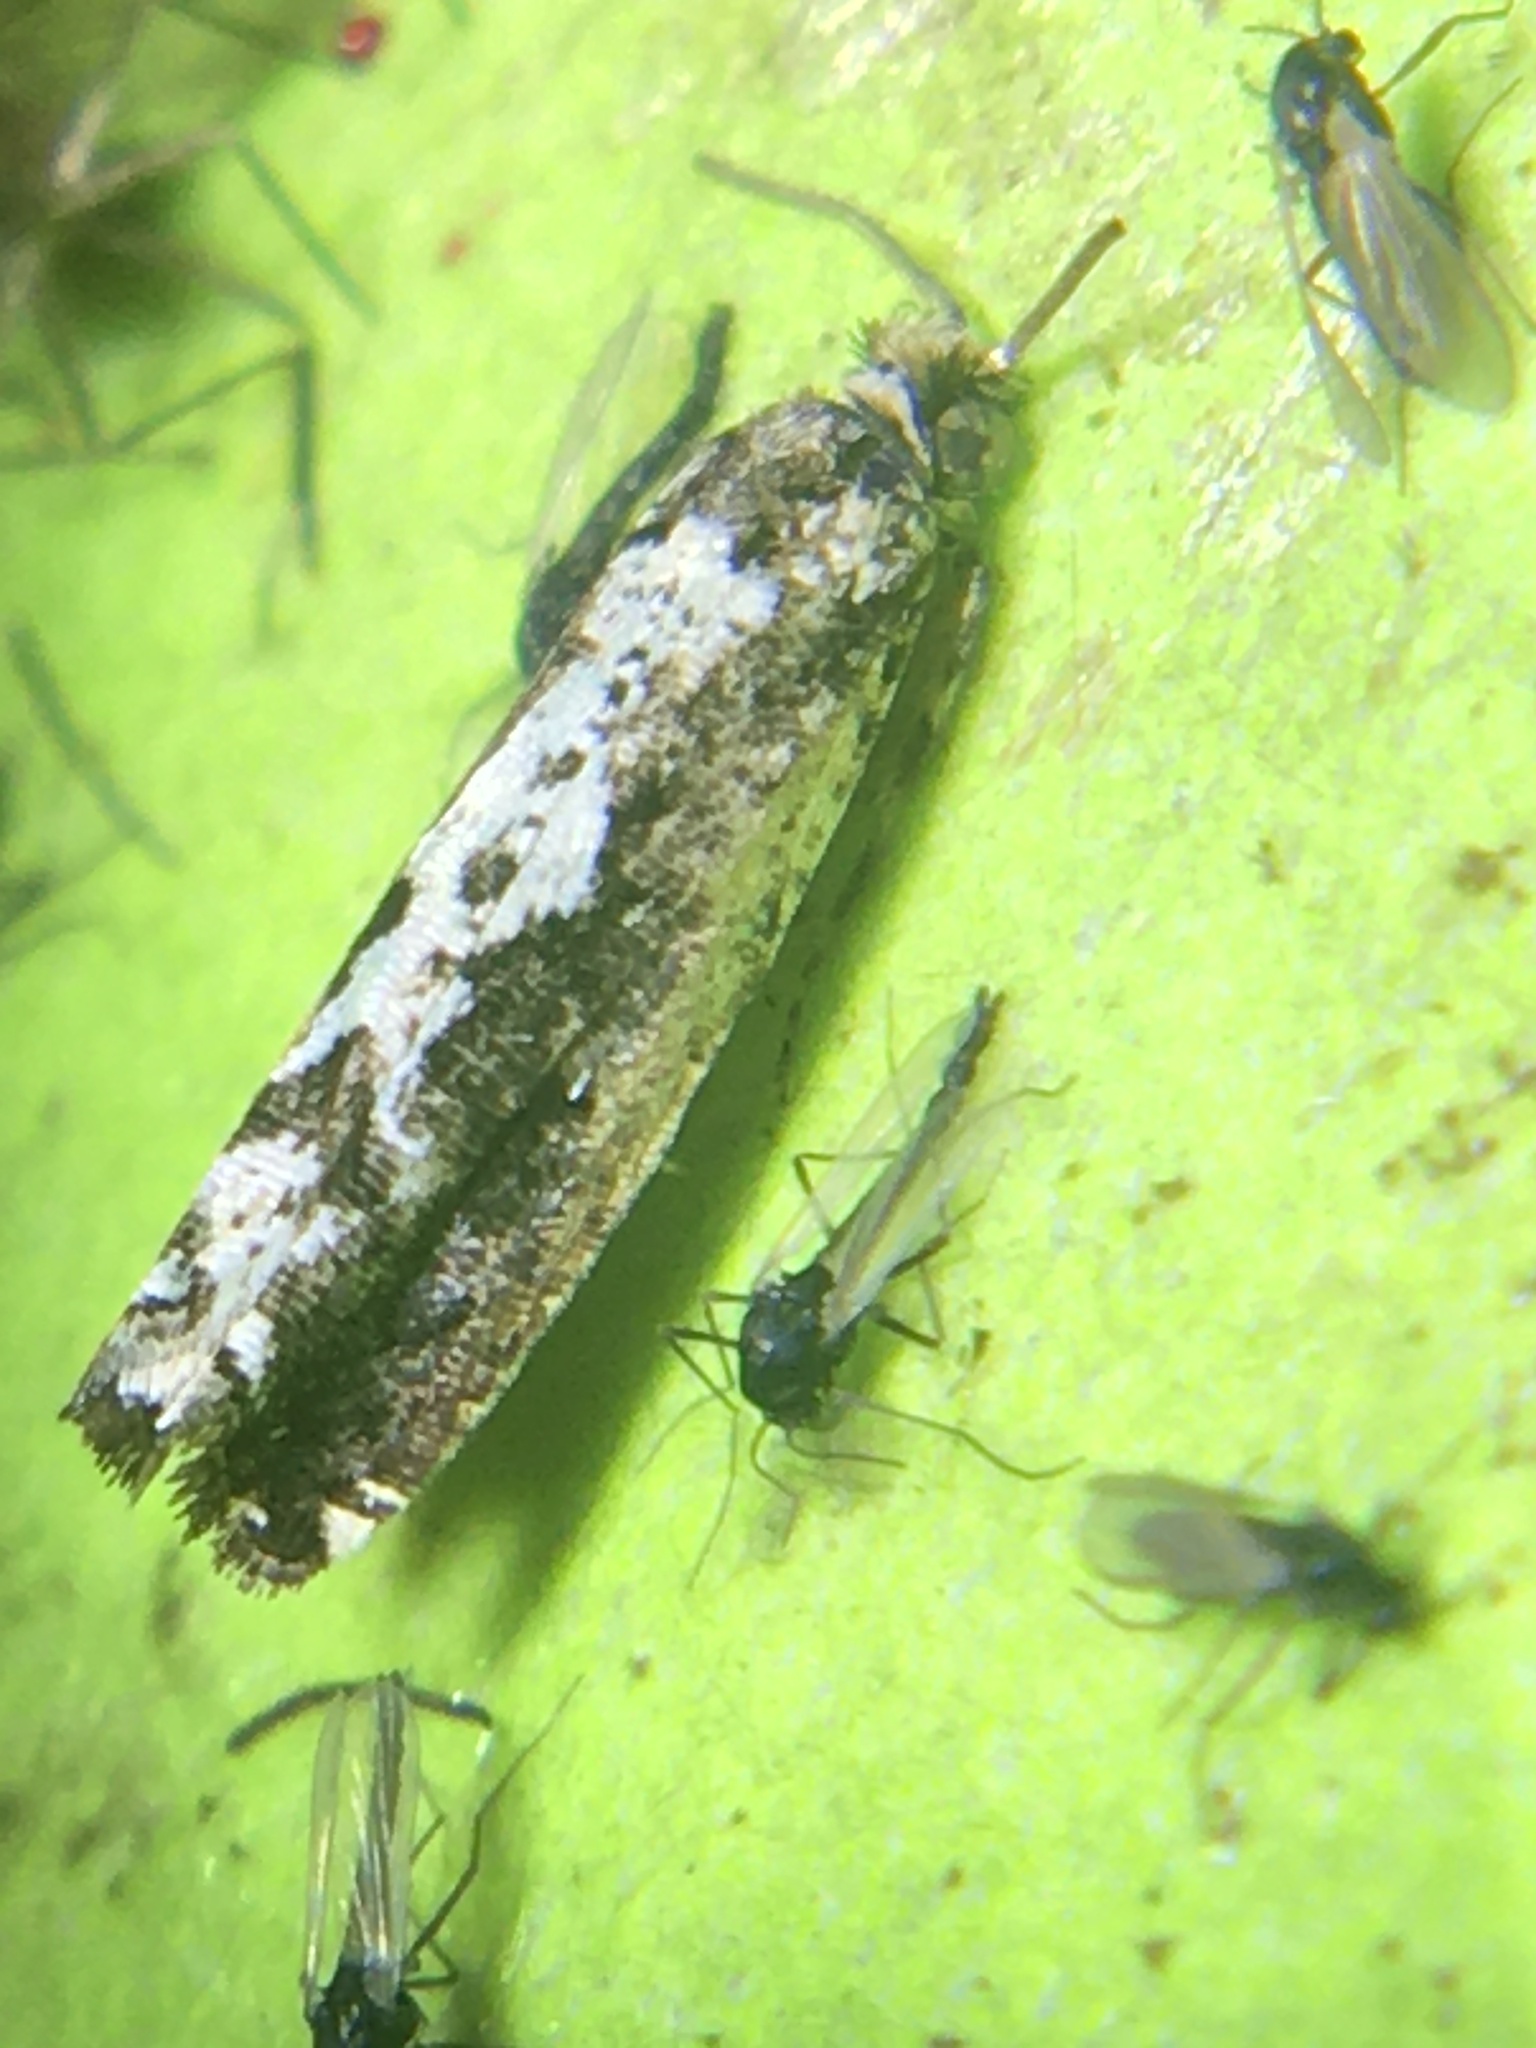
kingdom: Animalia
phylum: Arthropoda
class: Insecta
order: Lepidoptera
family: Tortricidae
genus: Chimoptesis
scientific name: Chimoptesis pennsylvaniana
